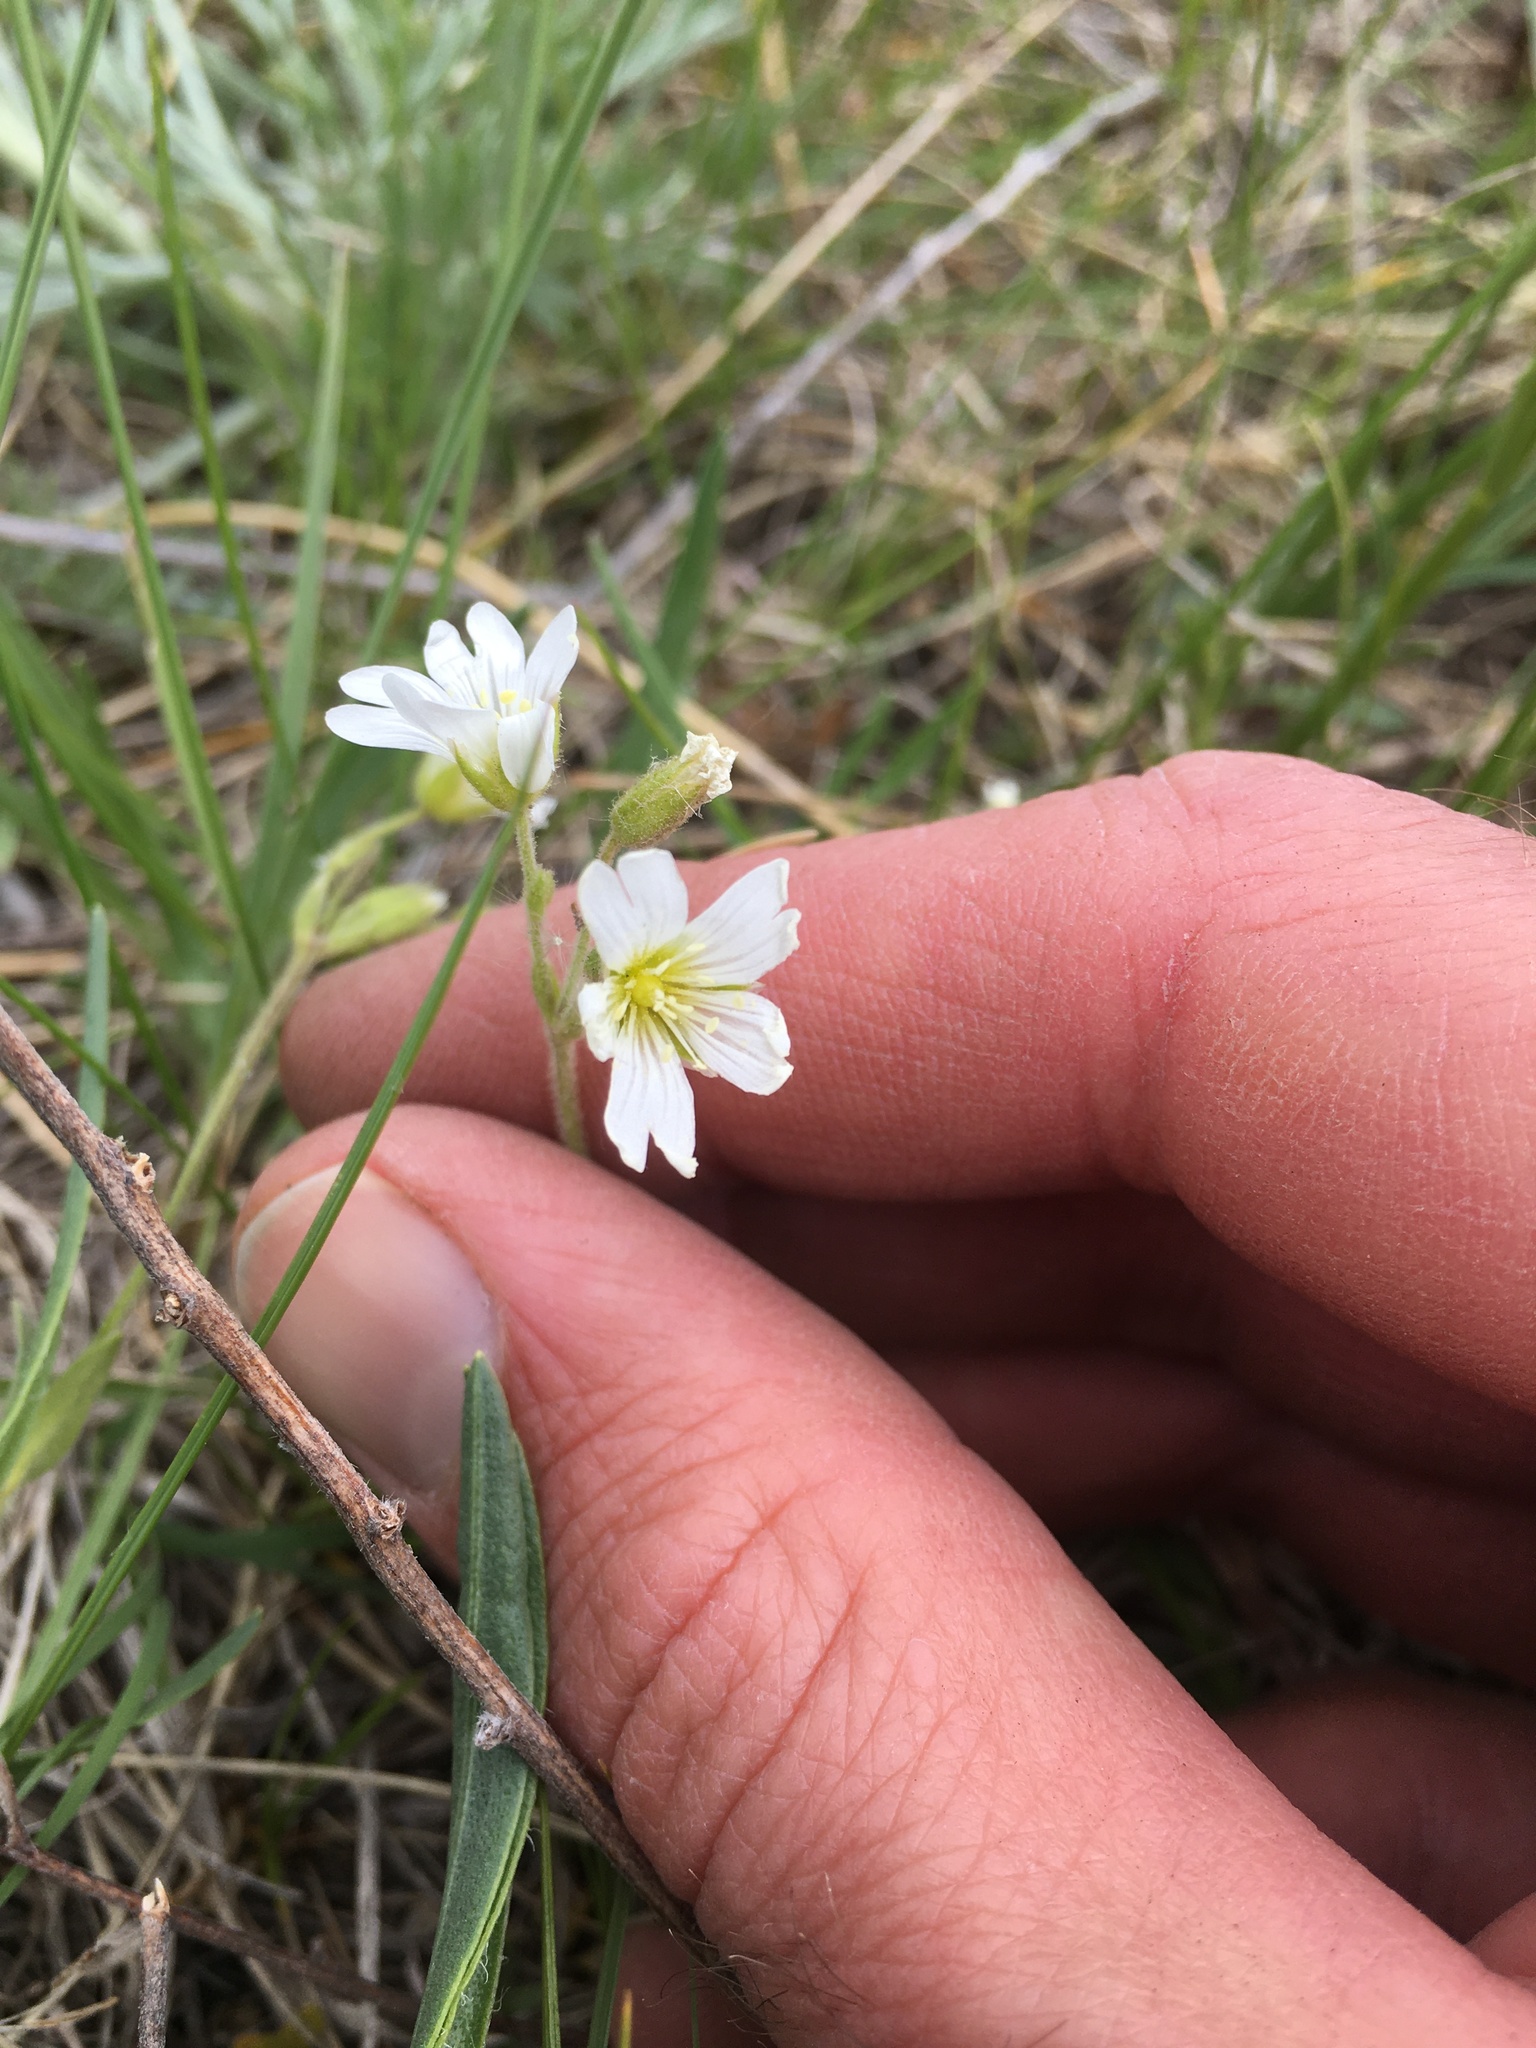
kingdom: Plantae
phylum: Tracheophyta
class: Magnoliopsida
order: Caryophyllales
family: Caryophyllaceae
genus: Cerastium
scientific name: Cerastium arvense
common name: Field mouse-ear
